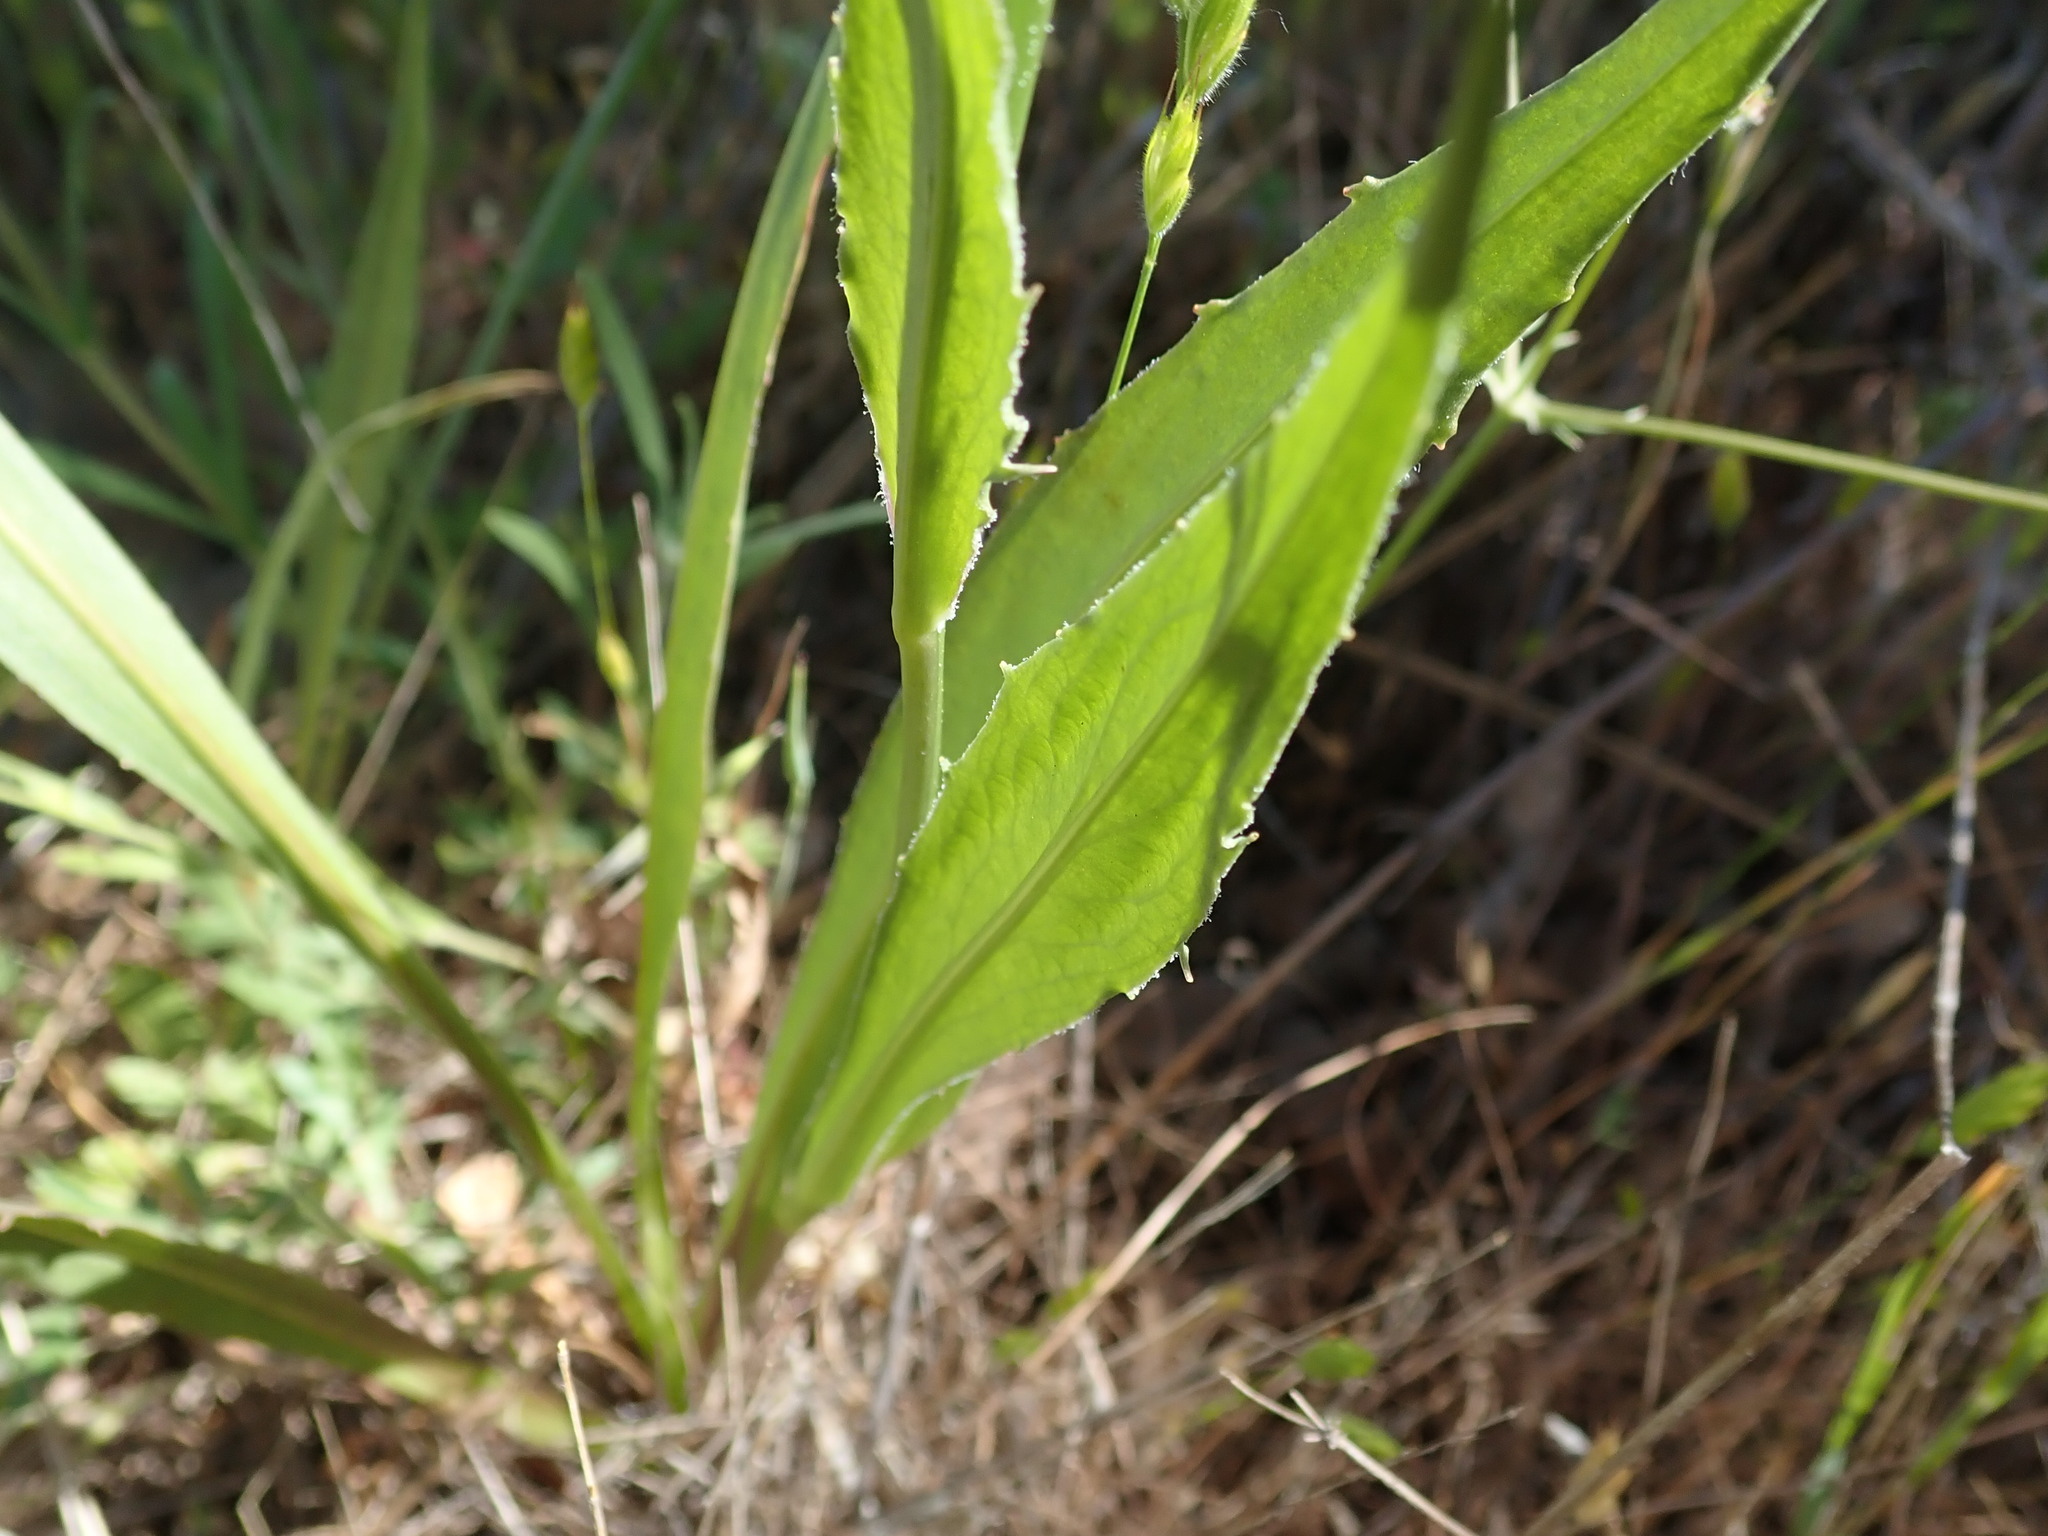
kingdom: Plantae
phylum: Tracheophyta
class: Magnoliopsida
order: Asterales
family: Asteraceae
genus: Microseris
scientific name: Microseris sylvatica
